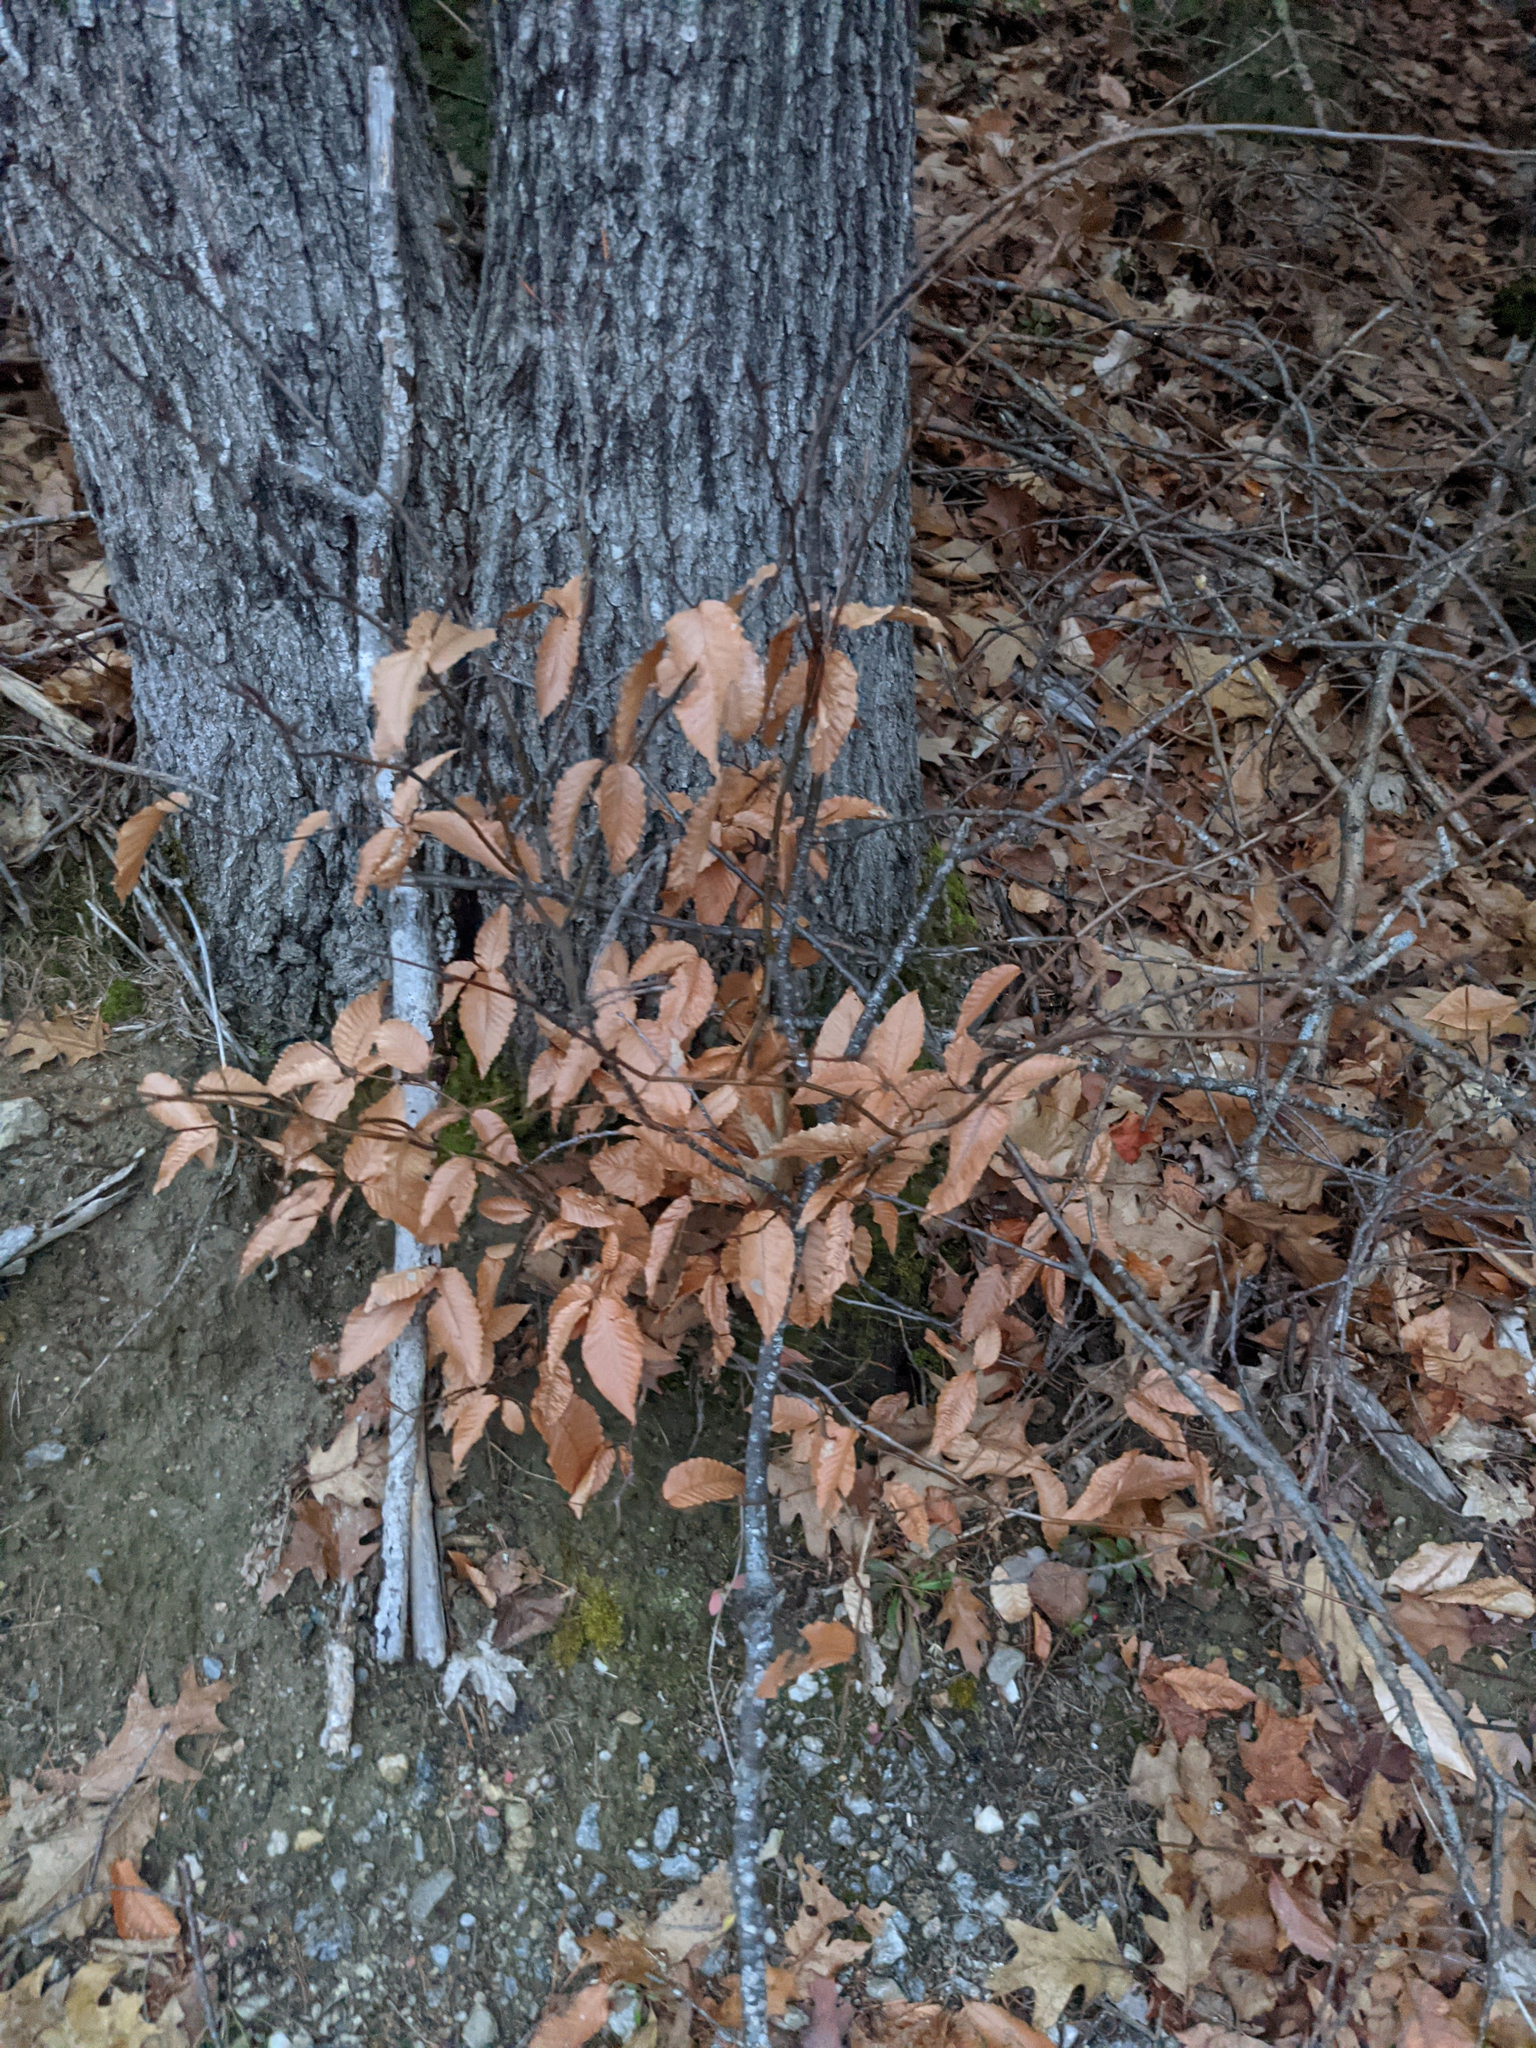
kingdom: Plantae
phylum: Tracheophyta
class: Magnoliopsida
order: Fagales
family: Fagaceae
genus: Fagus
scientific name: Fagus grandifolia
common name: American beech
